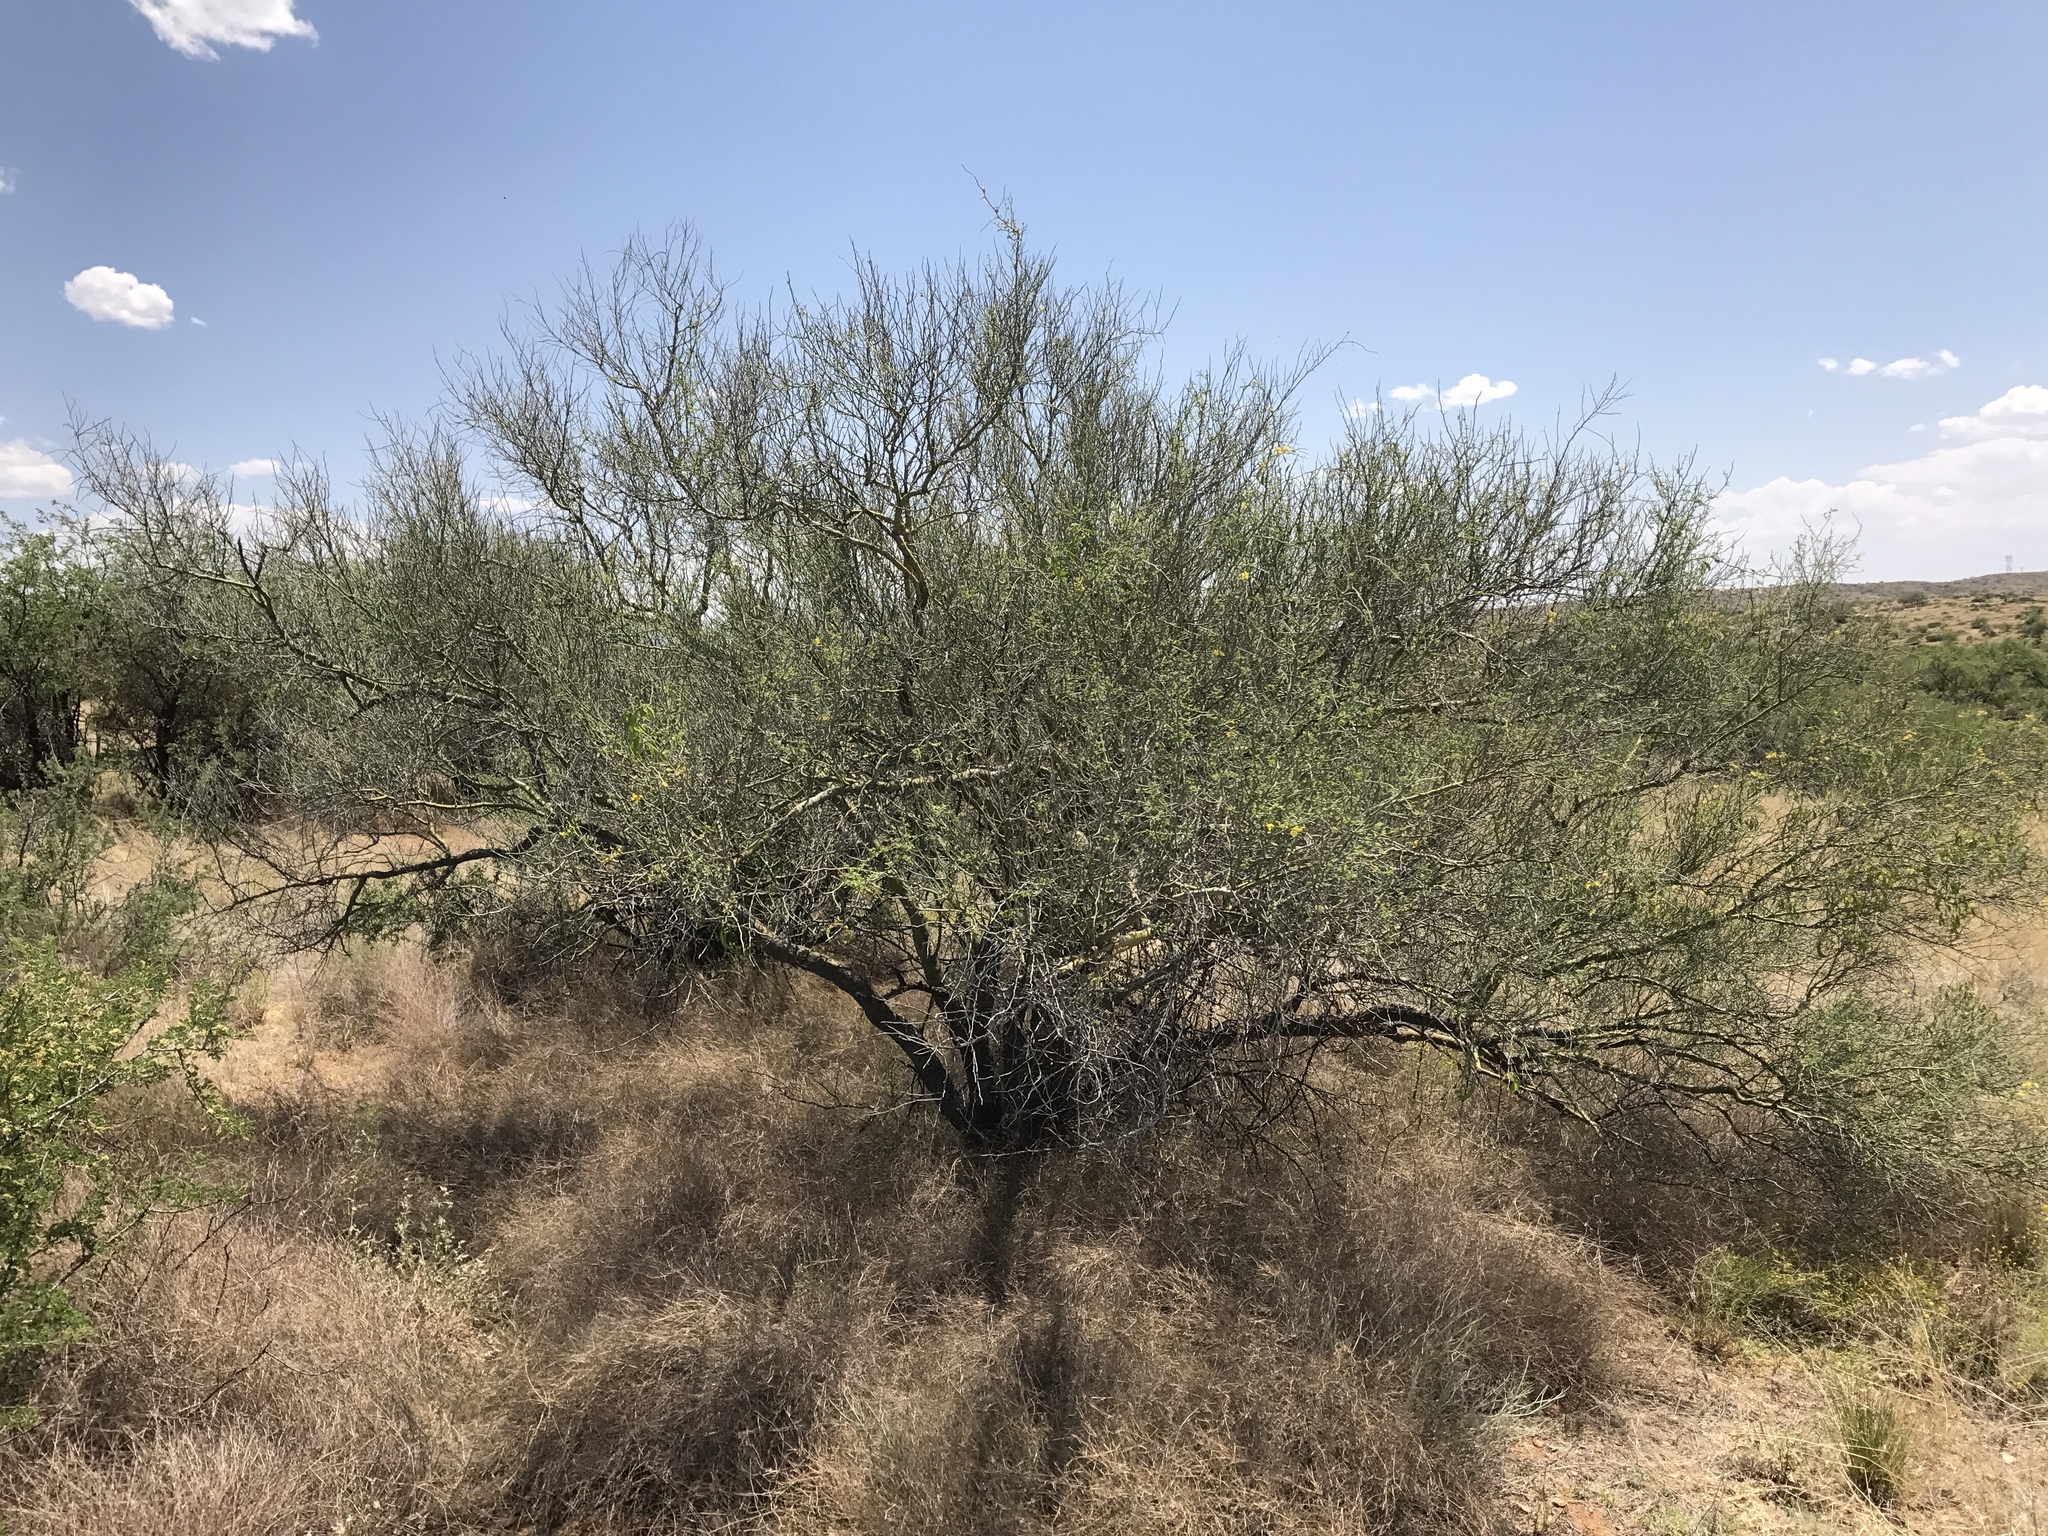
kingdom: Plantae
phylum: Tracheophyta
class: Magnoliopsida
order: Fabales
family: Fabaceae
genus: Parkinsonia
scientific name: Parkinsonia florida
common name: Blue paloverde
